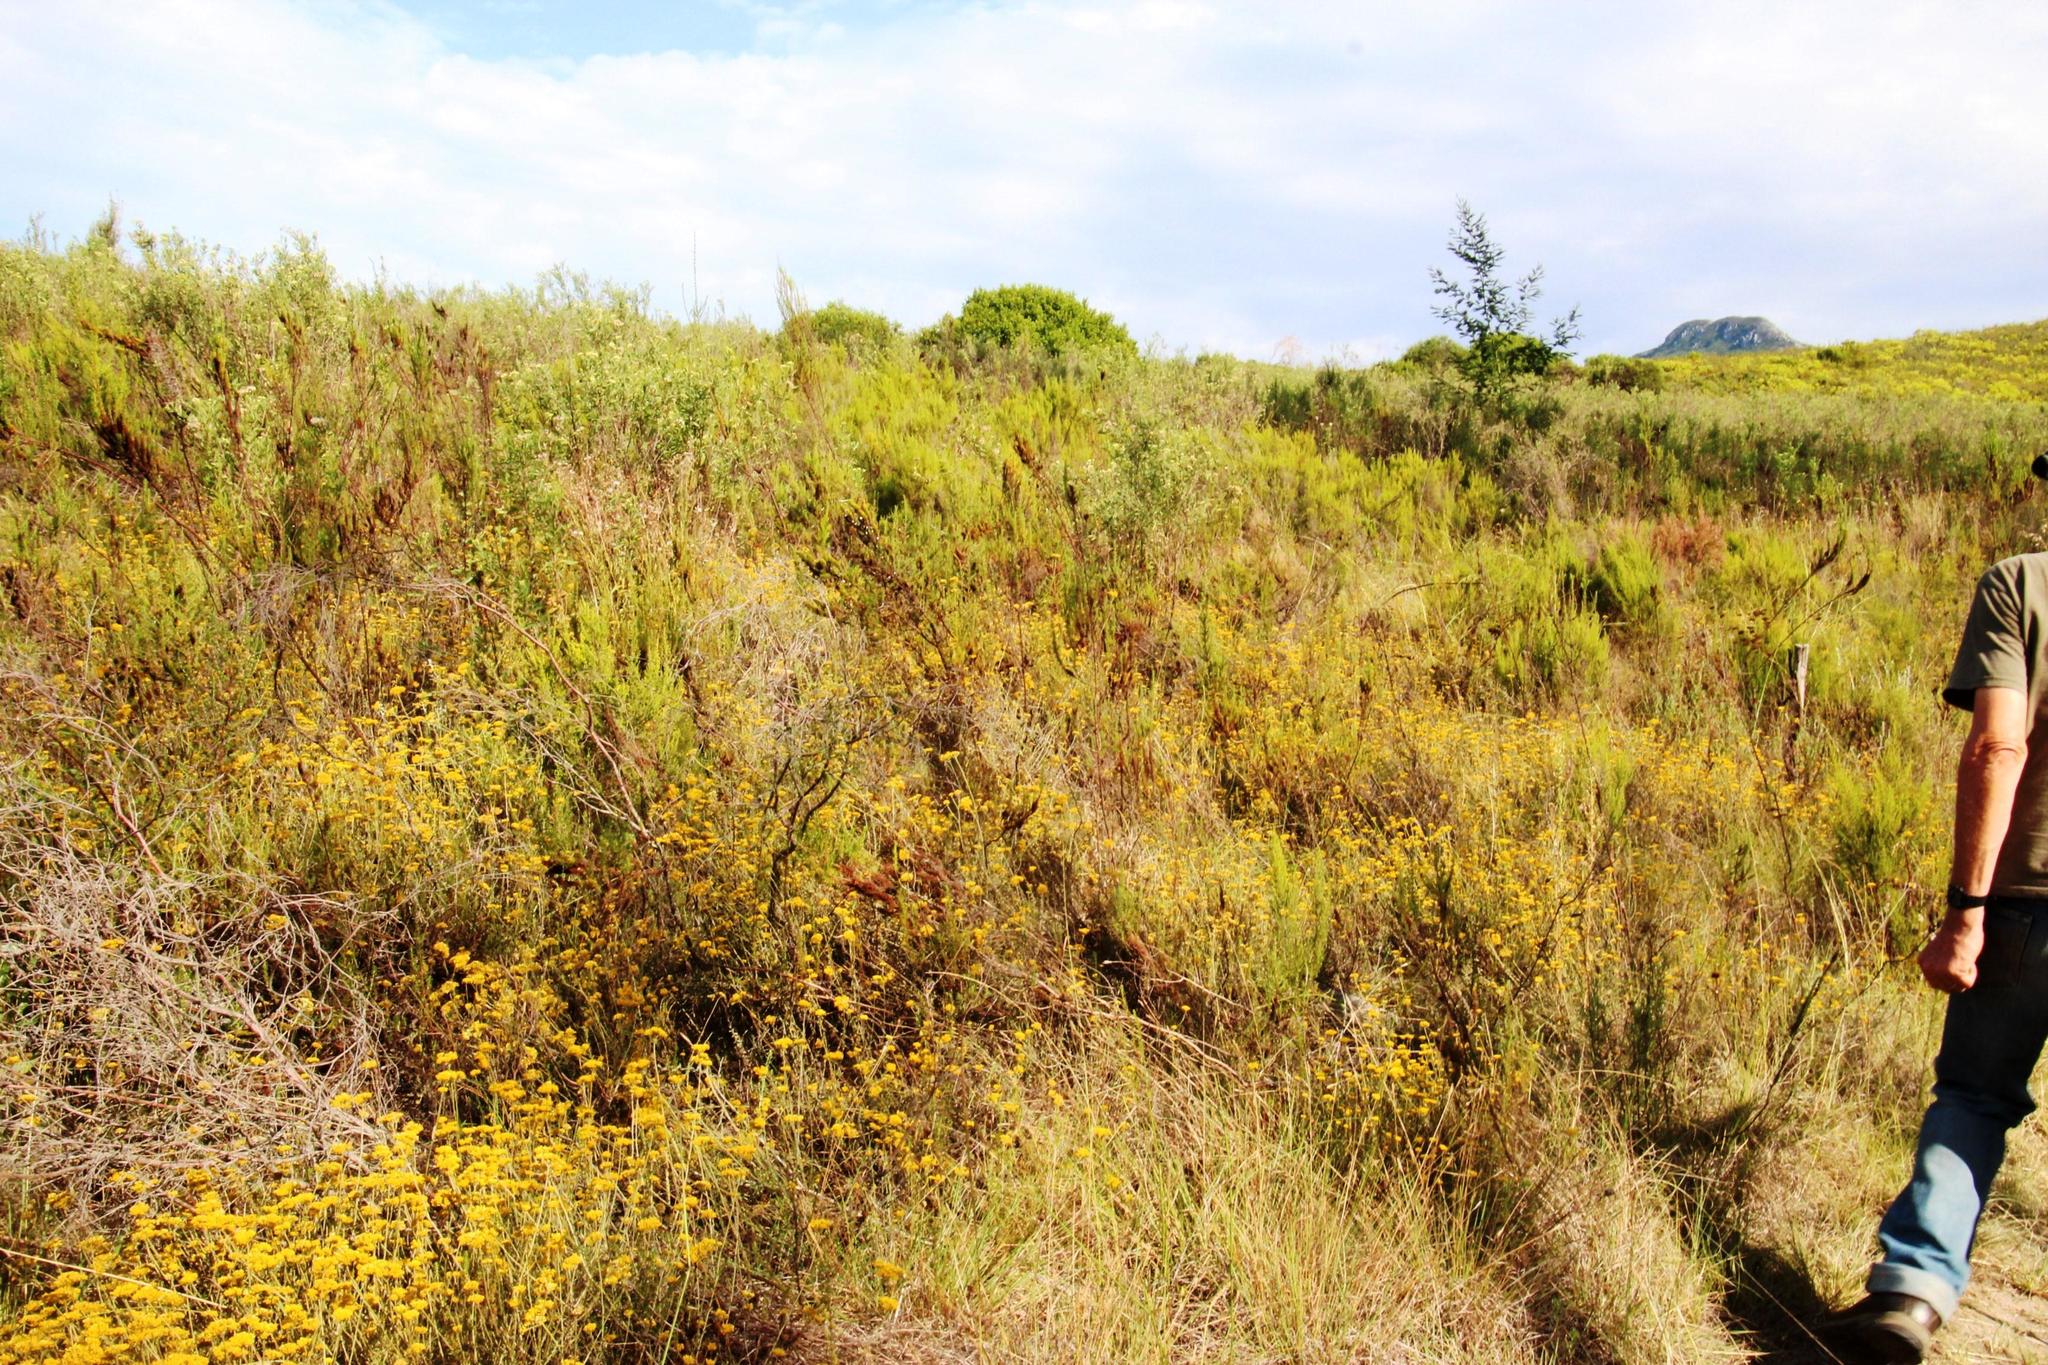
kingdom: Plantae
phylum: Tracheophyta
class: Magnoliopsida
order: Gentianales
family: Rubiaceae
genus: Anthospermum
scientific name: Anthospermum aethiopicum
